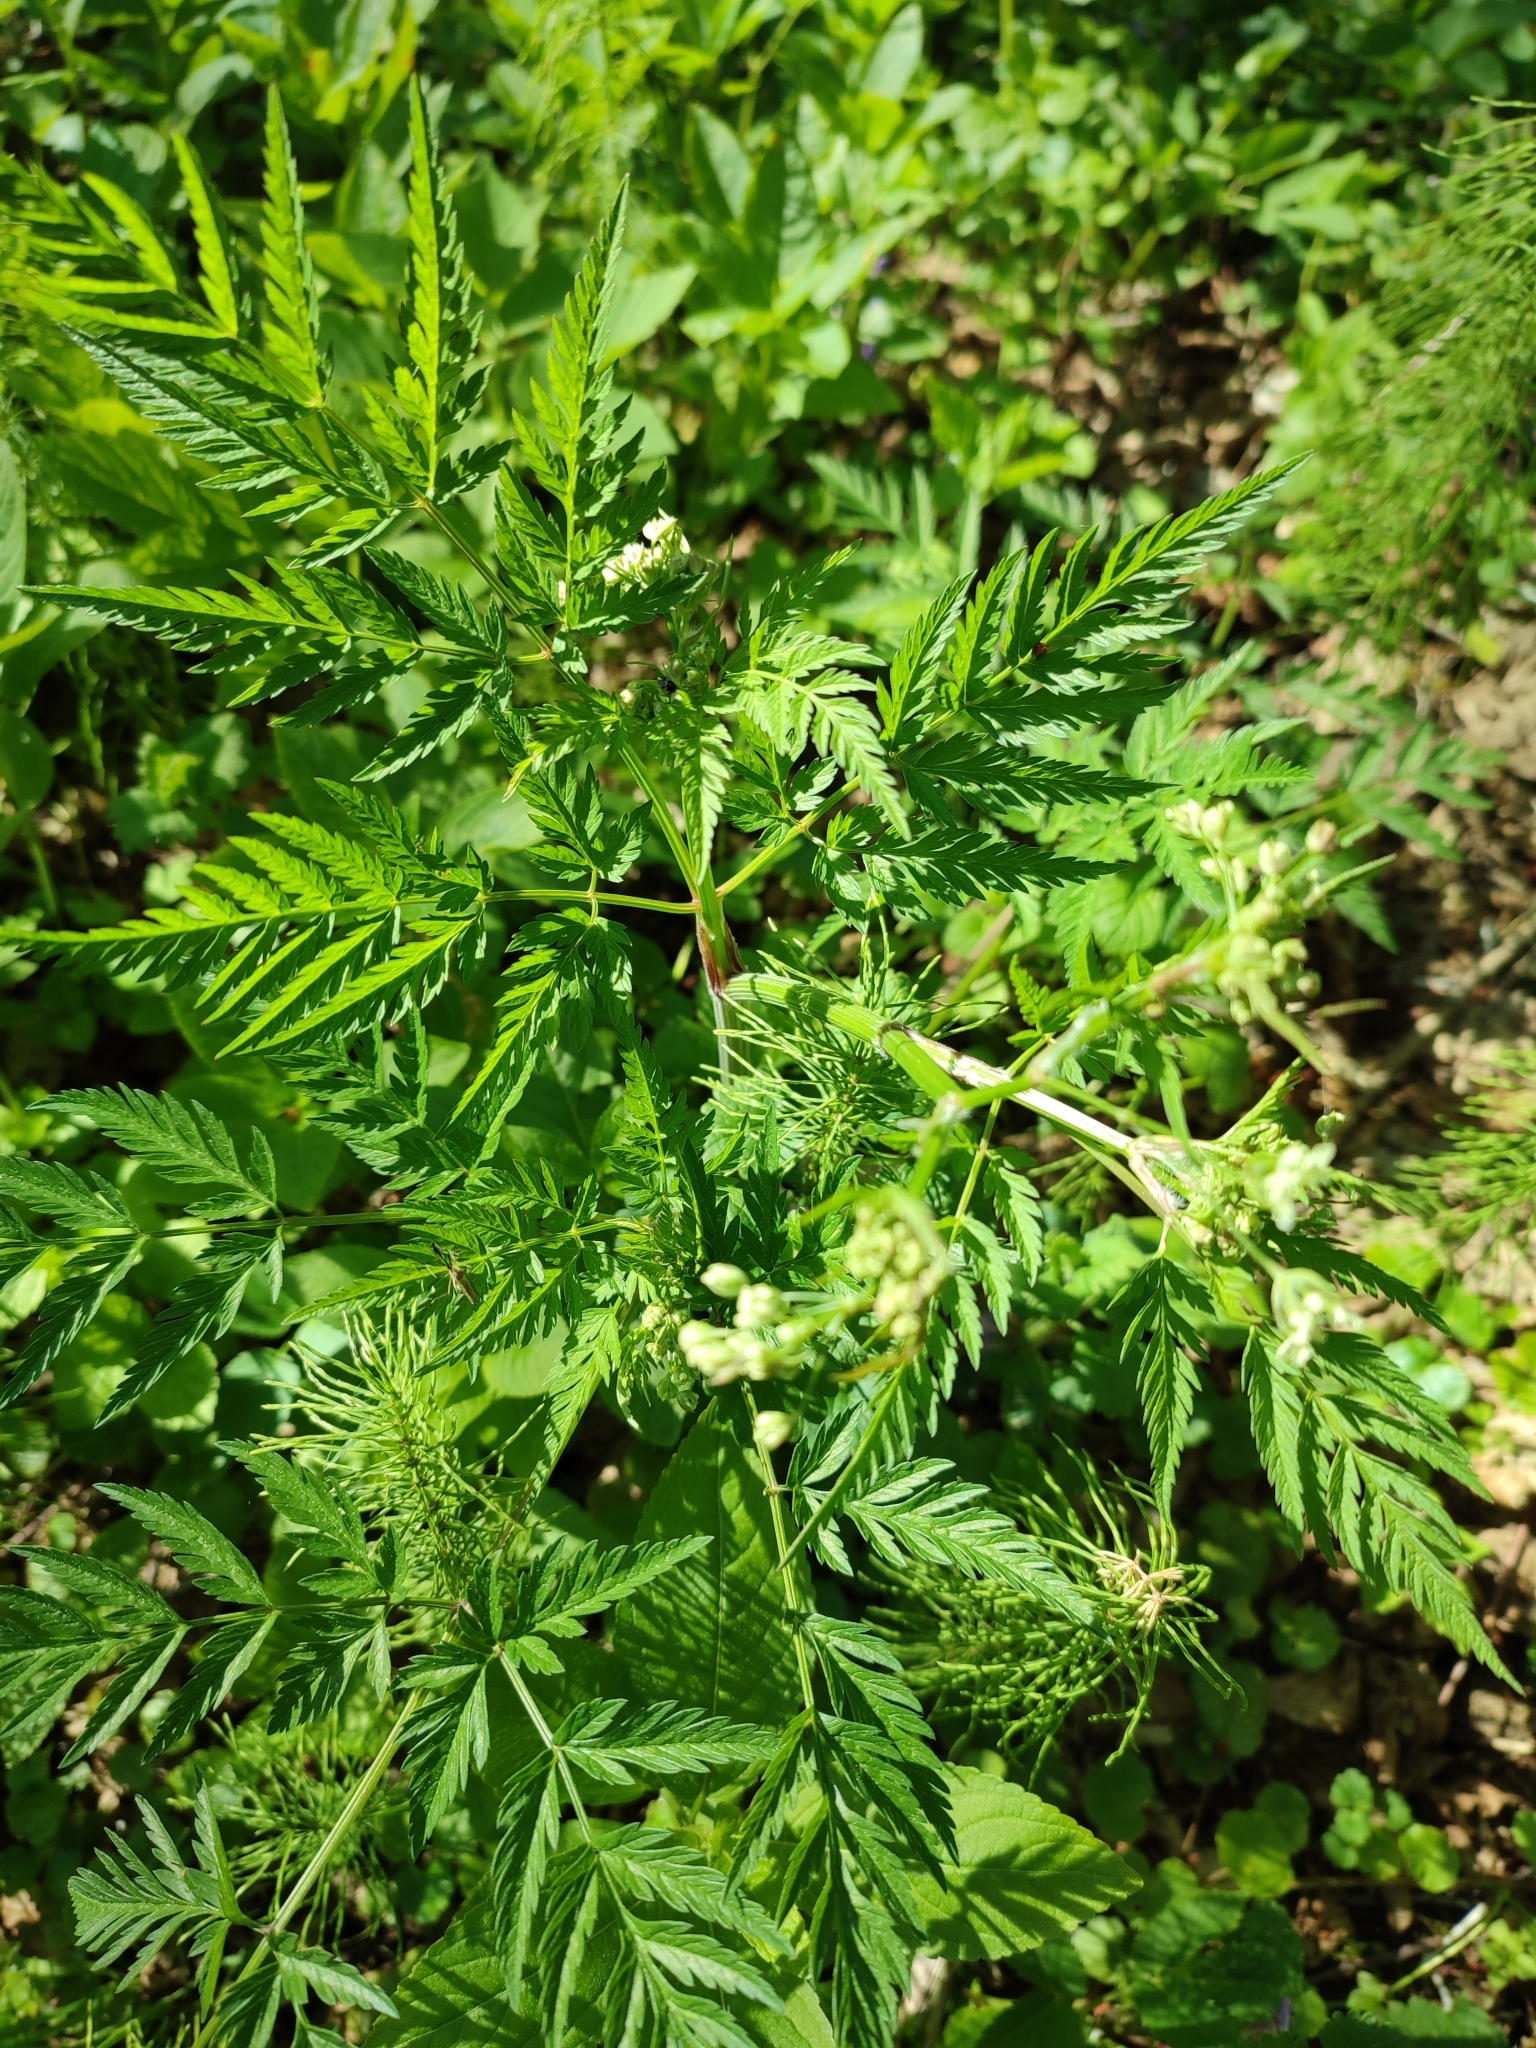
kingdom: Plantae
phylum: Tracheophyta
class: Magnoliopsida
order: Apiales
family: Apiaceae
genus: Anthriscus
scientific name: Anthriscus sylvestris
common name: Cow parsley
